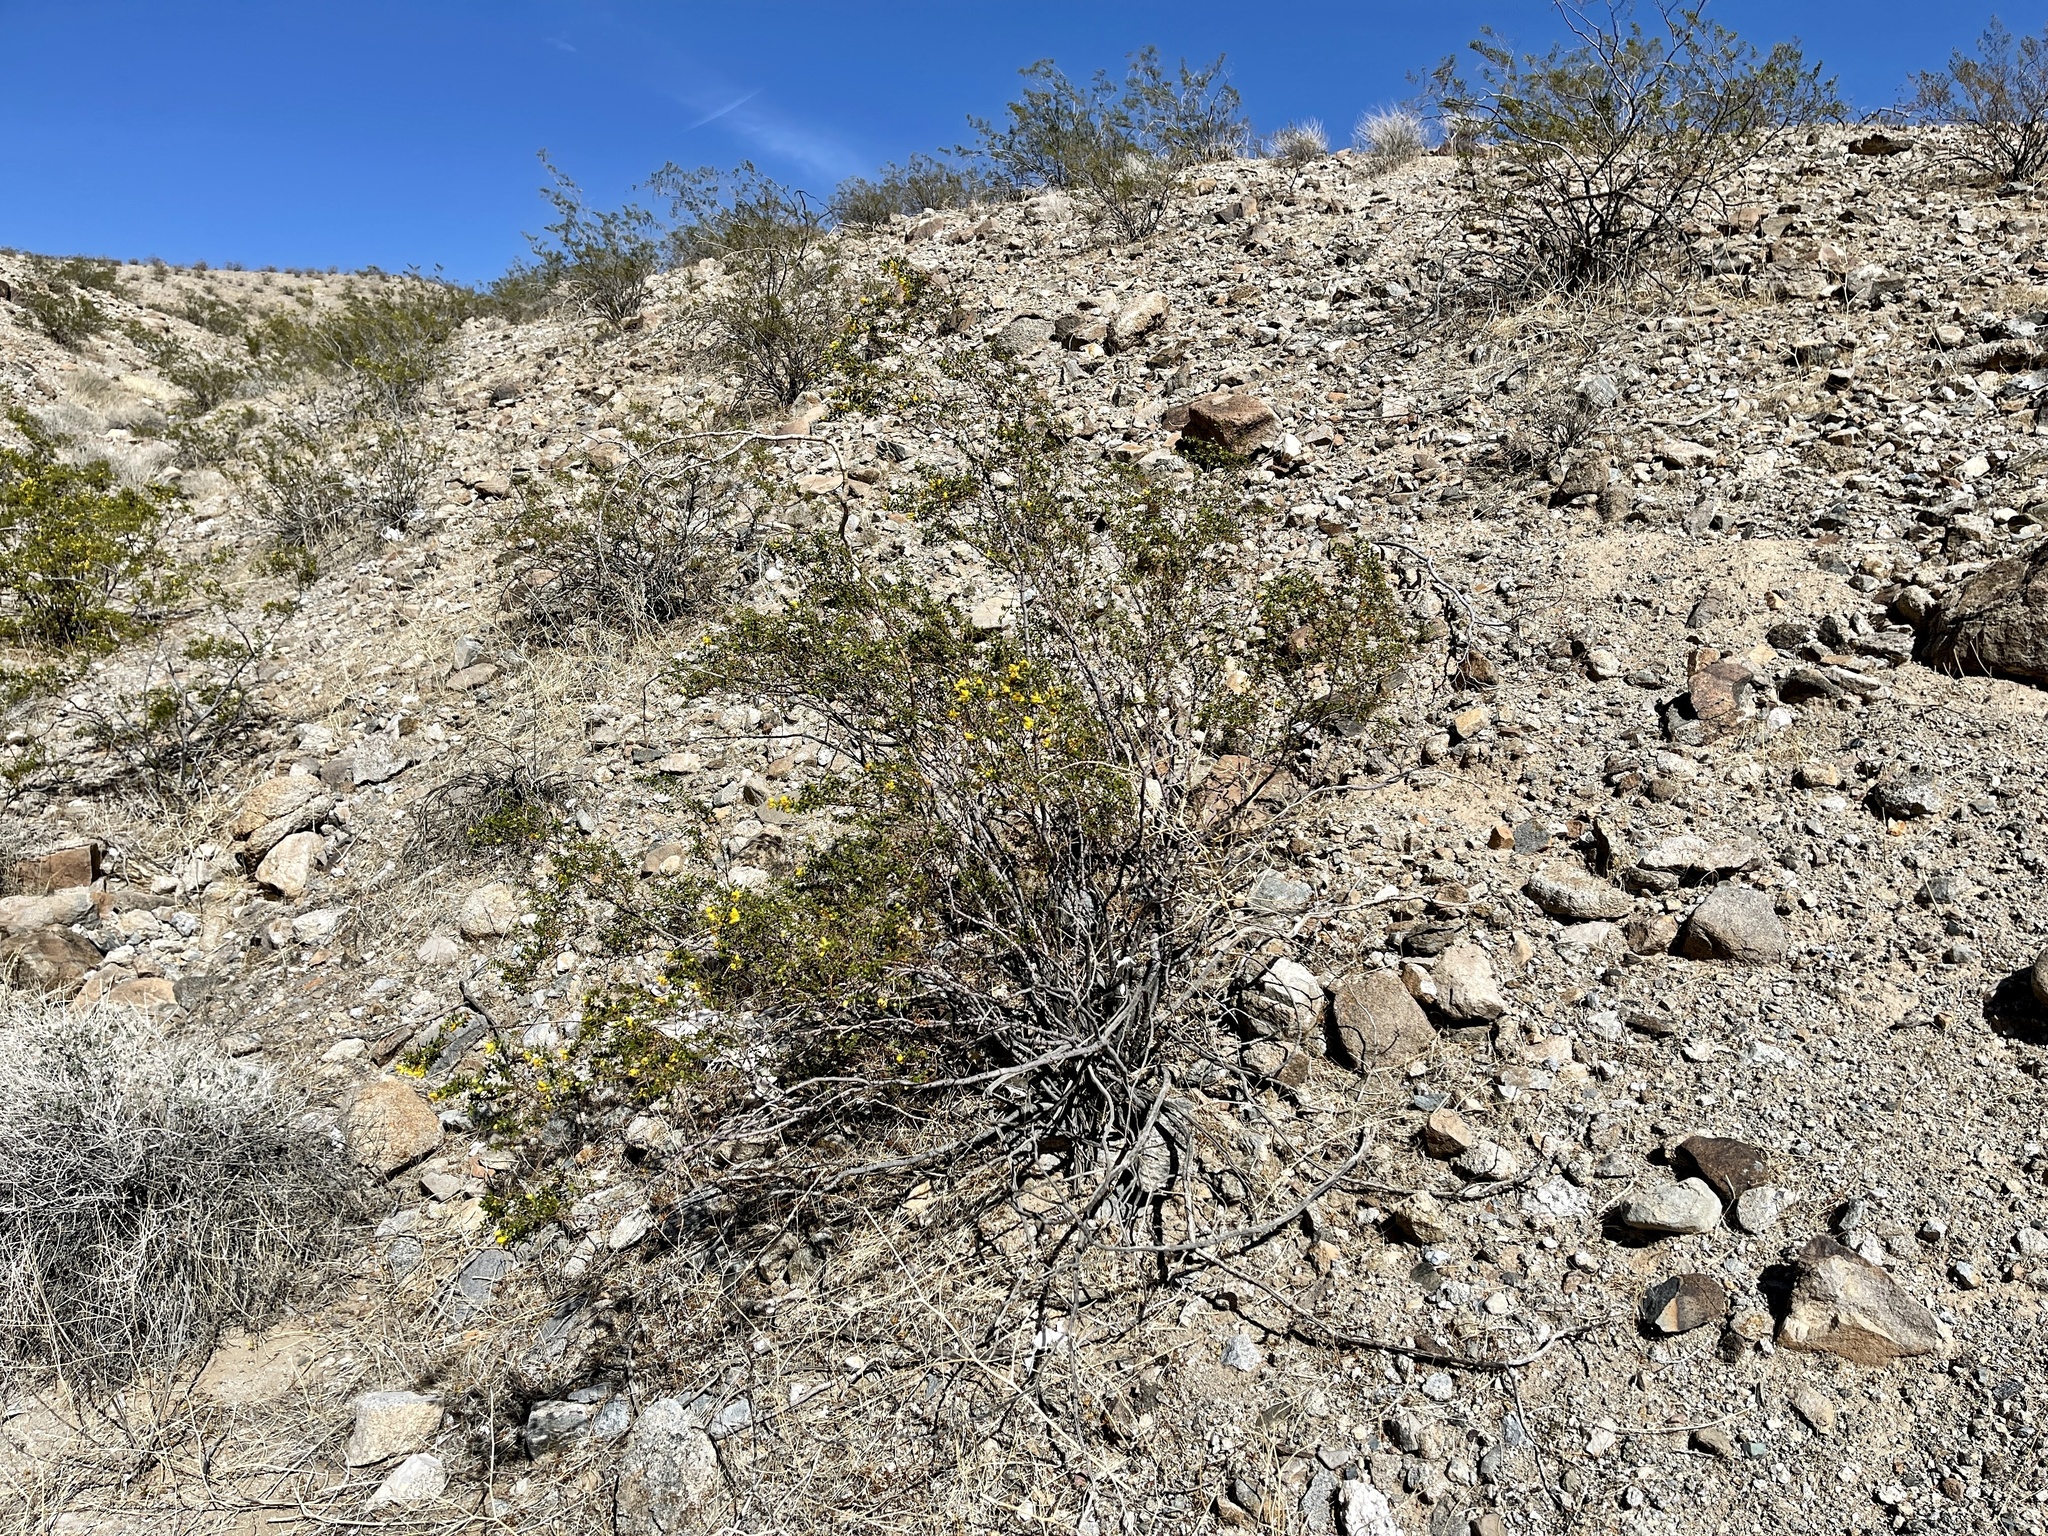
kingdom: Plantae
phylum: Tracheophyta
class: Magnoliopsida
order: Zygophyllales
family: Zygophyllaceae
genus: Larrea
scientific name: Larrea tridentata
